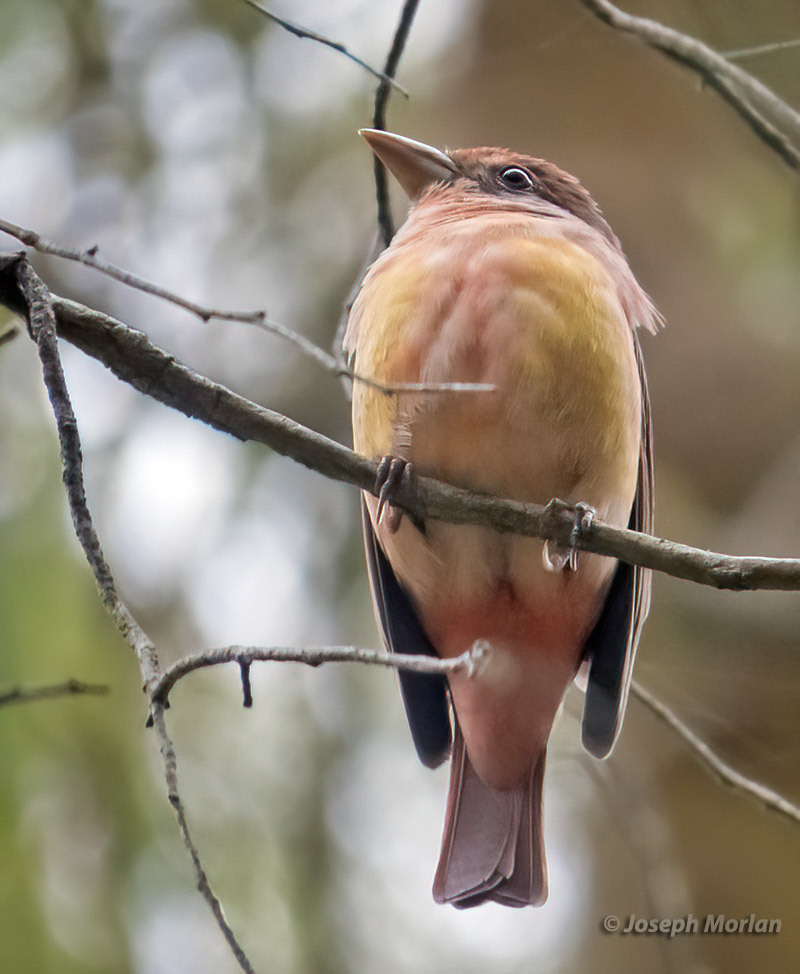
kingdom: Animalia
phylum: Chordata
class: Aves
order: Passeriformes
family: Cardinalidae
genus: Piranga
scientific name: Piranga rubra
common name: Summer tanager
